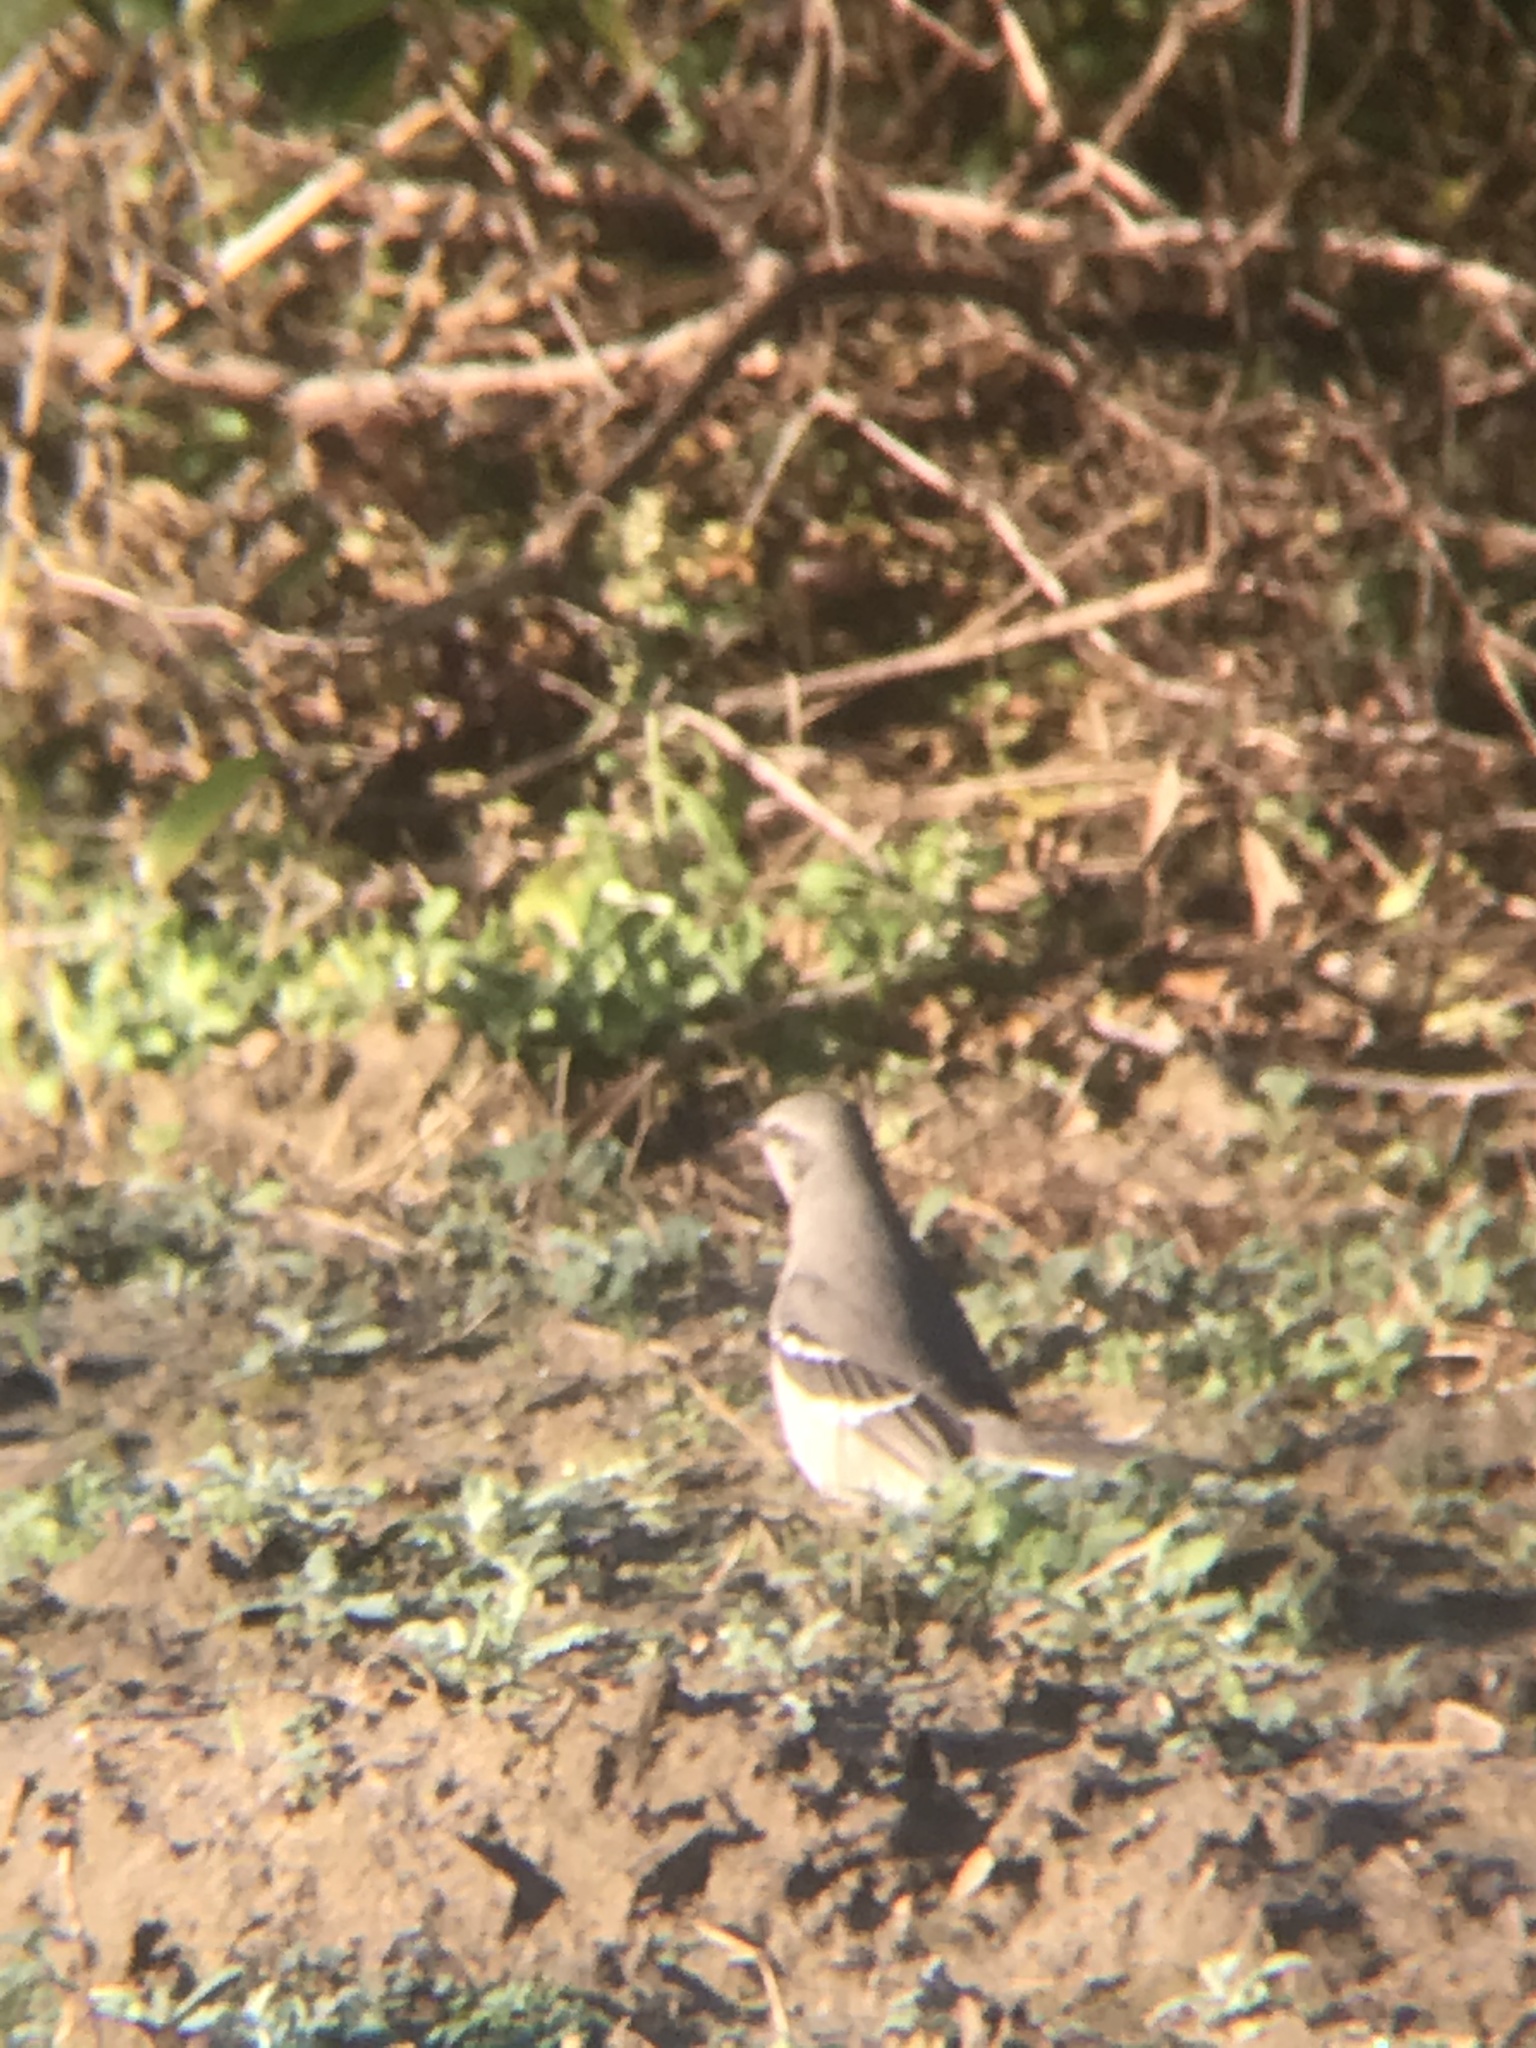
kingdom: Animalia
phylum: Chordata
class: Aves
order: Passeriformes
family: Mimidae
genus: Mimus
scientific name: Mimus polyglottos
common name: Northern mockingbird
